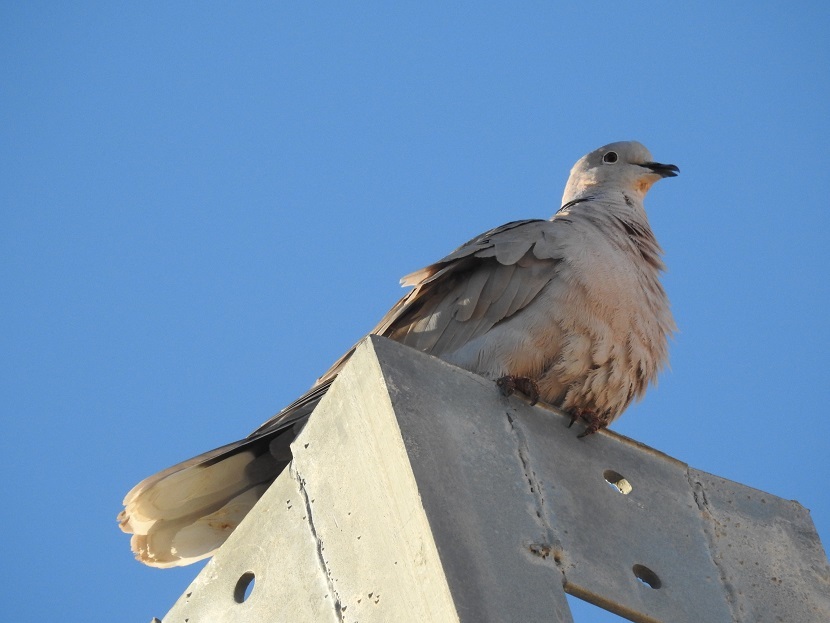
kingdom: Animalia
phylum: Chordata
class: Aves
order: Columbiformes
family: Columbidae
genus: Streptopelia
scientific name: Streptopelia decaocto
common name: Eurasian collared dove
